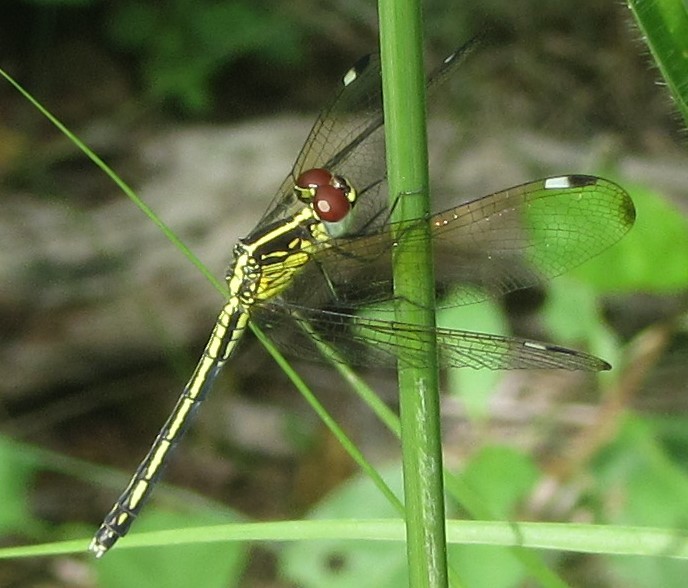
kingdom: Animalia
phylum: Arthropoda
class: Insecta
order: Odonata
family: Libellulidae
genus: Hemistigma
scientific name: Hemistigma albipunctum
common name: African pied-spot
